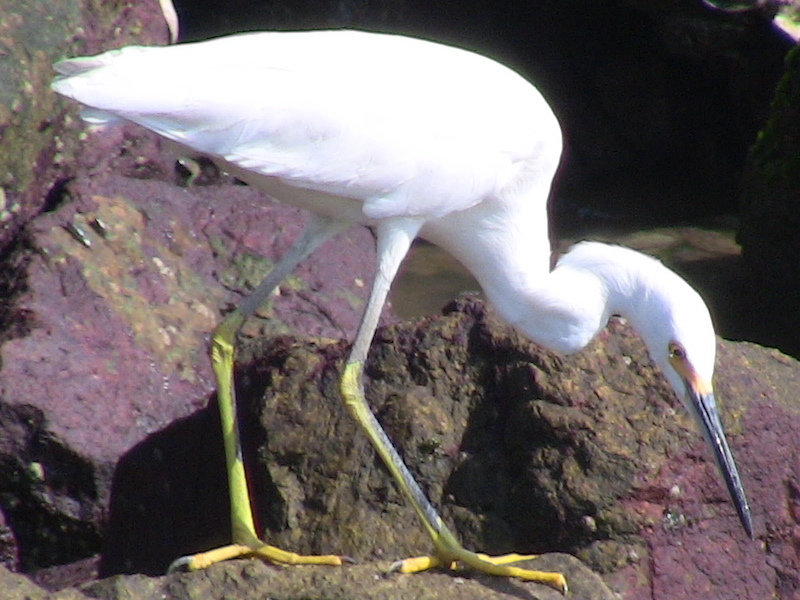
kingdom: Animalia
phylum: Chordata
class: Aves
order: Pelecaniformes
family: Ardeidae
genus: Egretta
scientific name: Egretta thula
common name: Snowy egret
